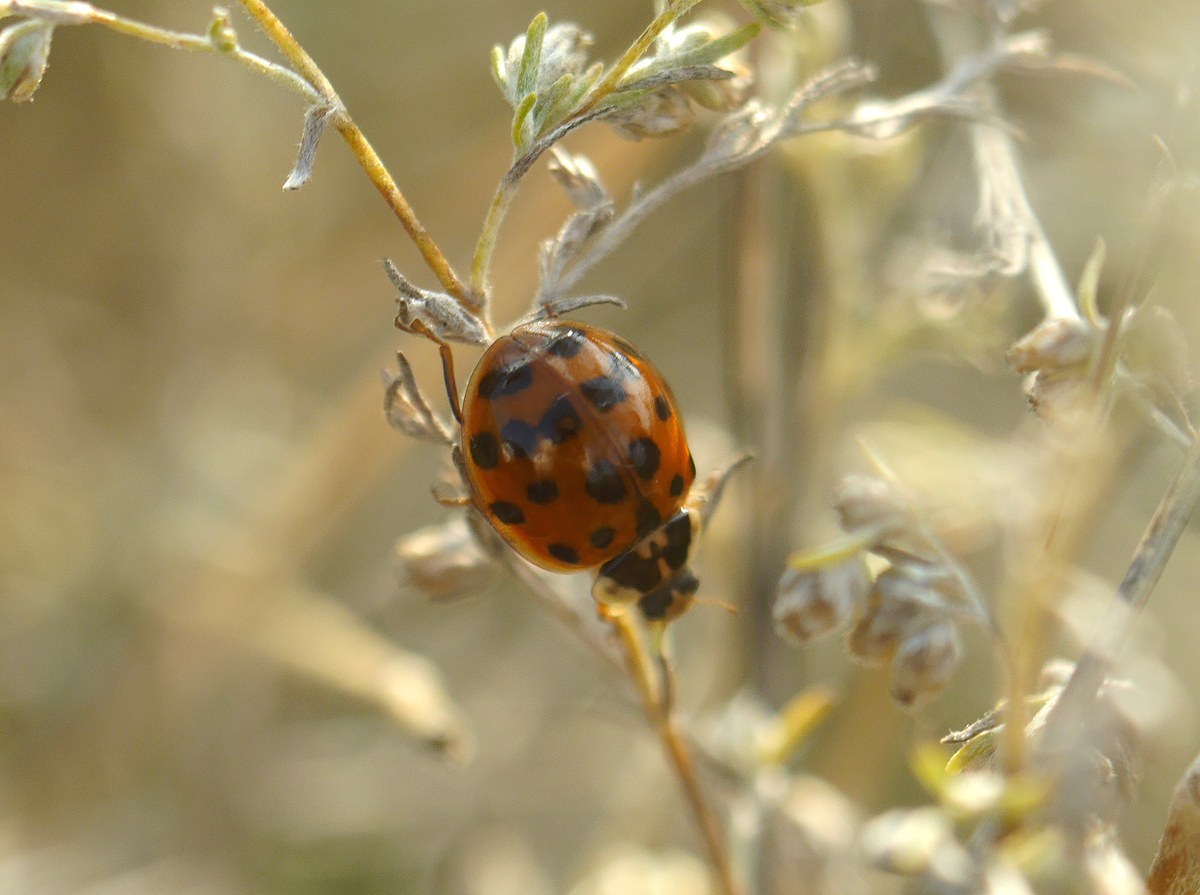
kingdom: Animalia
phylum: Arthropoda
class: Insecta
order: Coleoptera
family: Coccinellidae
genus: Harmonia
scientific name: Harmonia axyridis
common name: Harlequin ladybird
